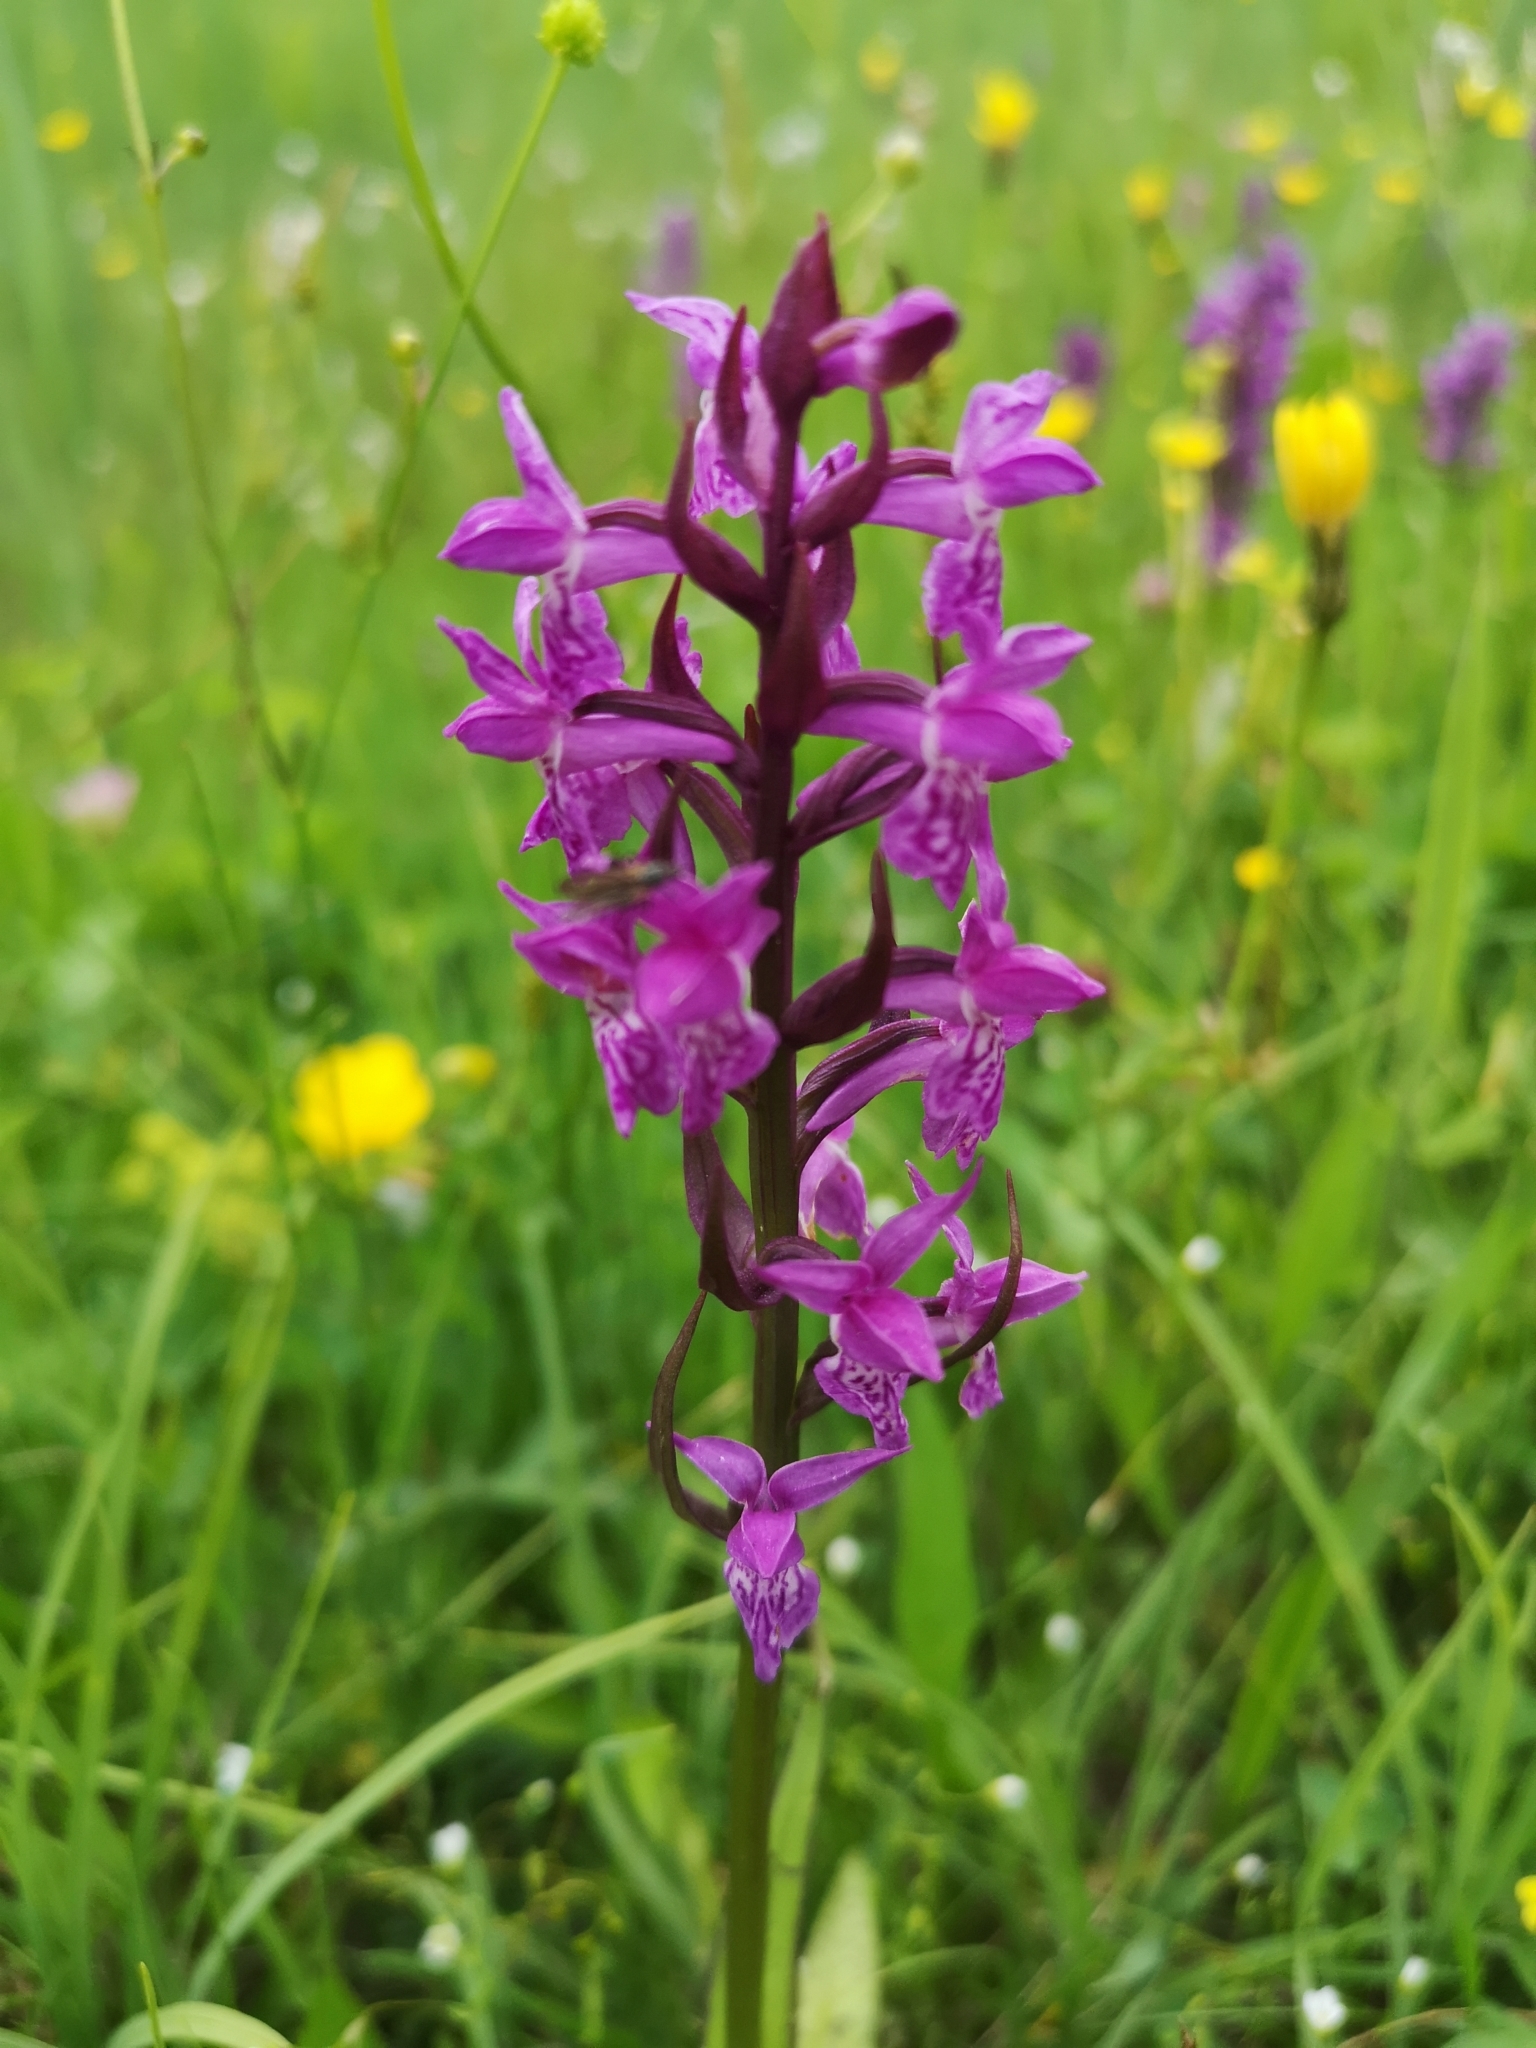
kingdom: Plantae
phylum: Tracheophyta
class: Liliopsida
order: Asparagales
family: Orchidaceae
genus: Dactylorhiza
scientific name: Dactylorhiza majalis
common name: Marsh orchid
